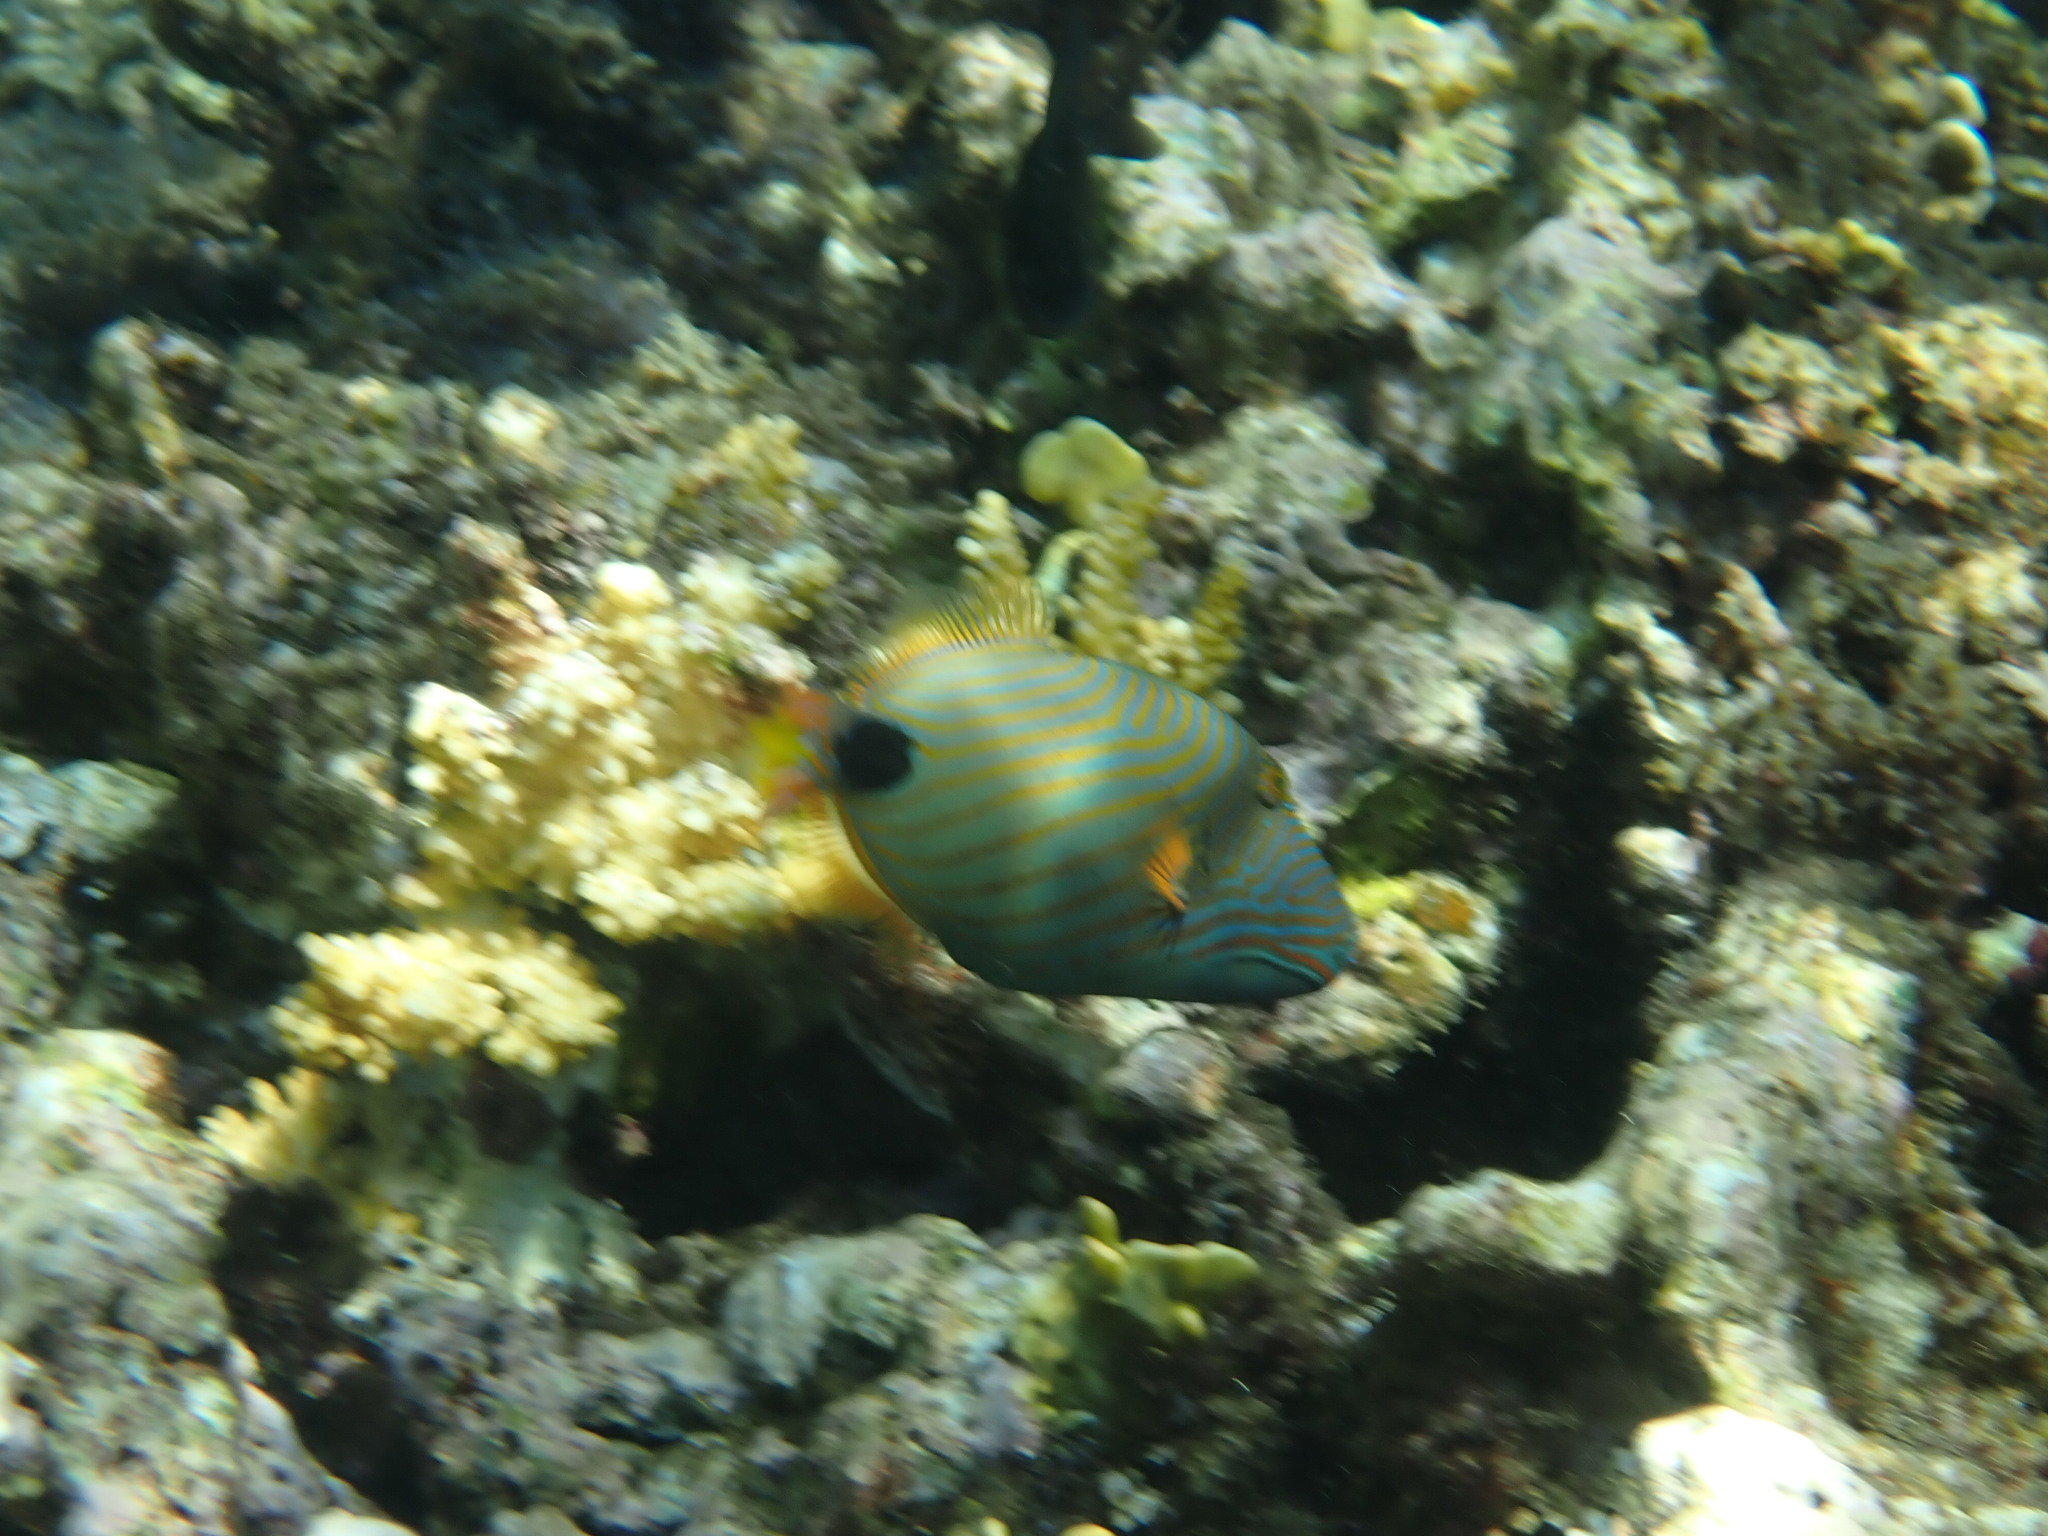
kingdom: Animalia
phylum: Chordata
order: Tetraodontiformes
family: Balistidae
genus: Balistapus
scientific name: Balistapus undulatus
